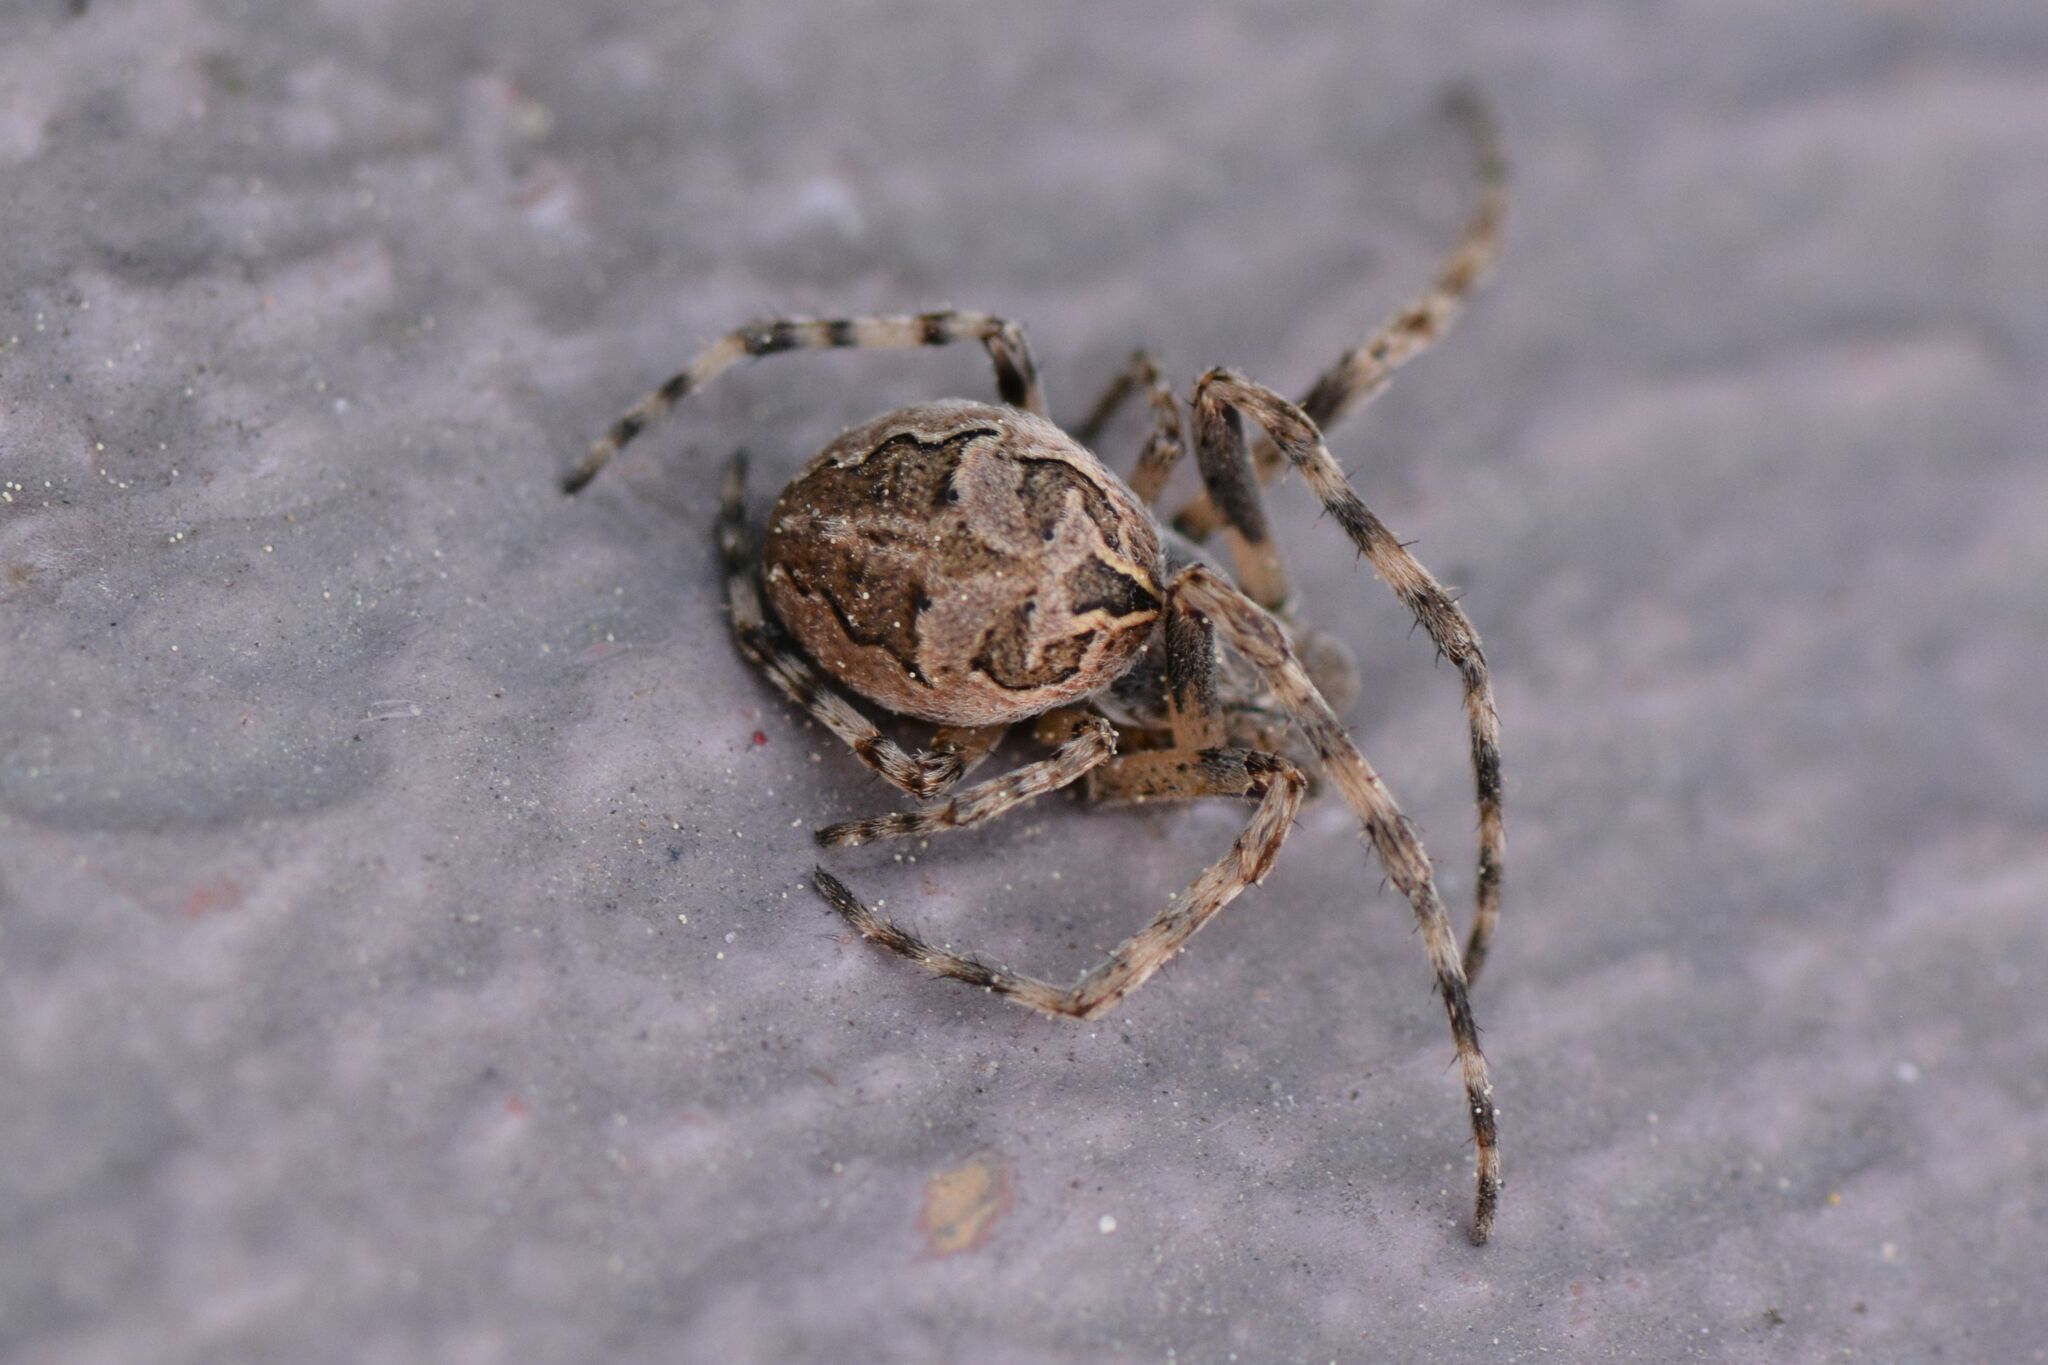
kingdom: Animalia
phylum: Arthropoda
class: Arachnida
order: Araneae
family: Araneidae
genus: Larinioides
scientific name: Larinioides sclopetarius
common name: Bridge orbweaver
